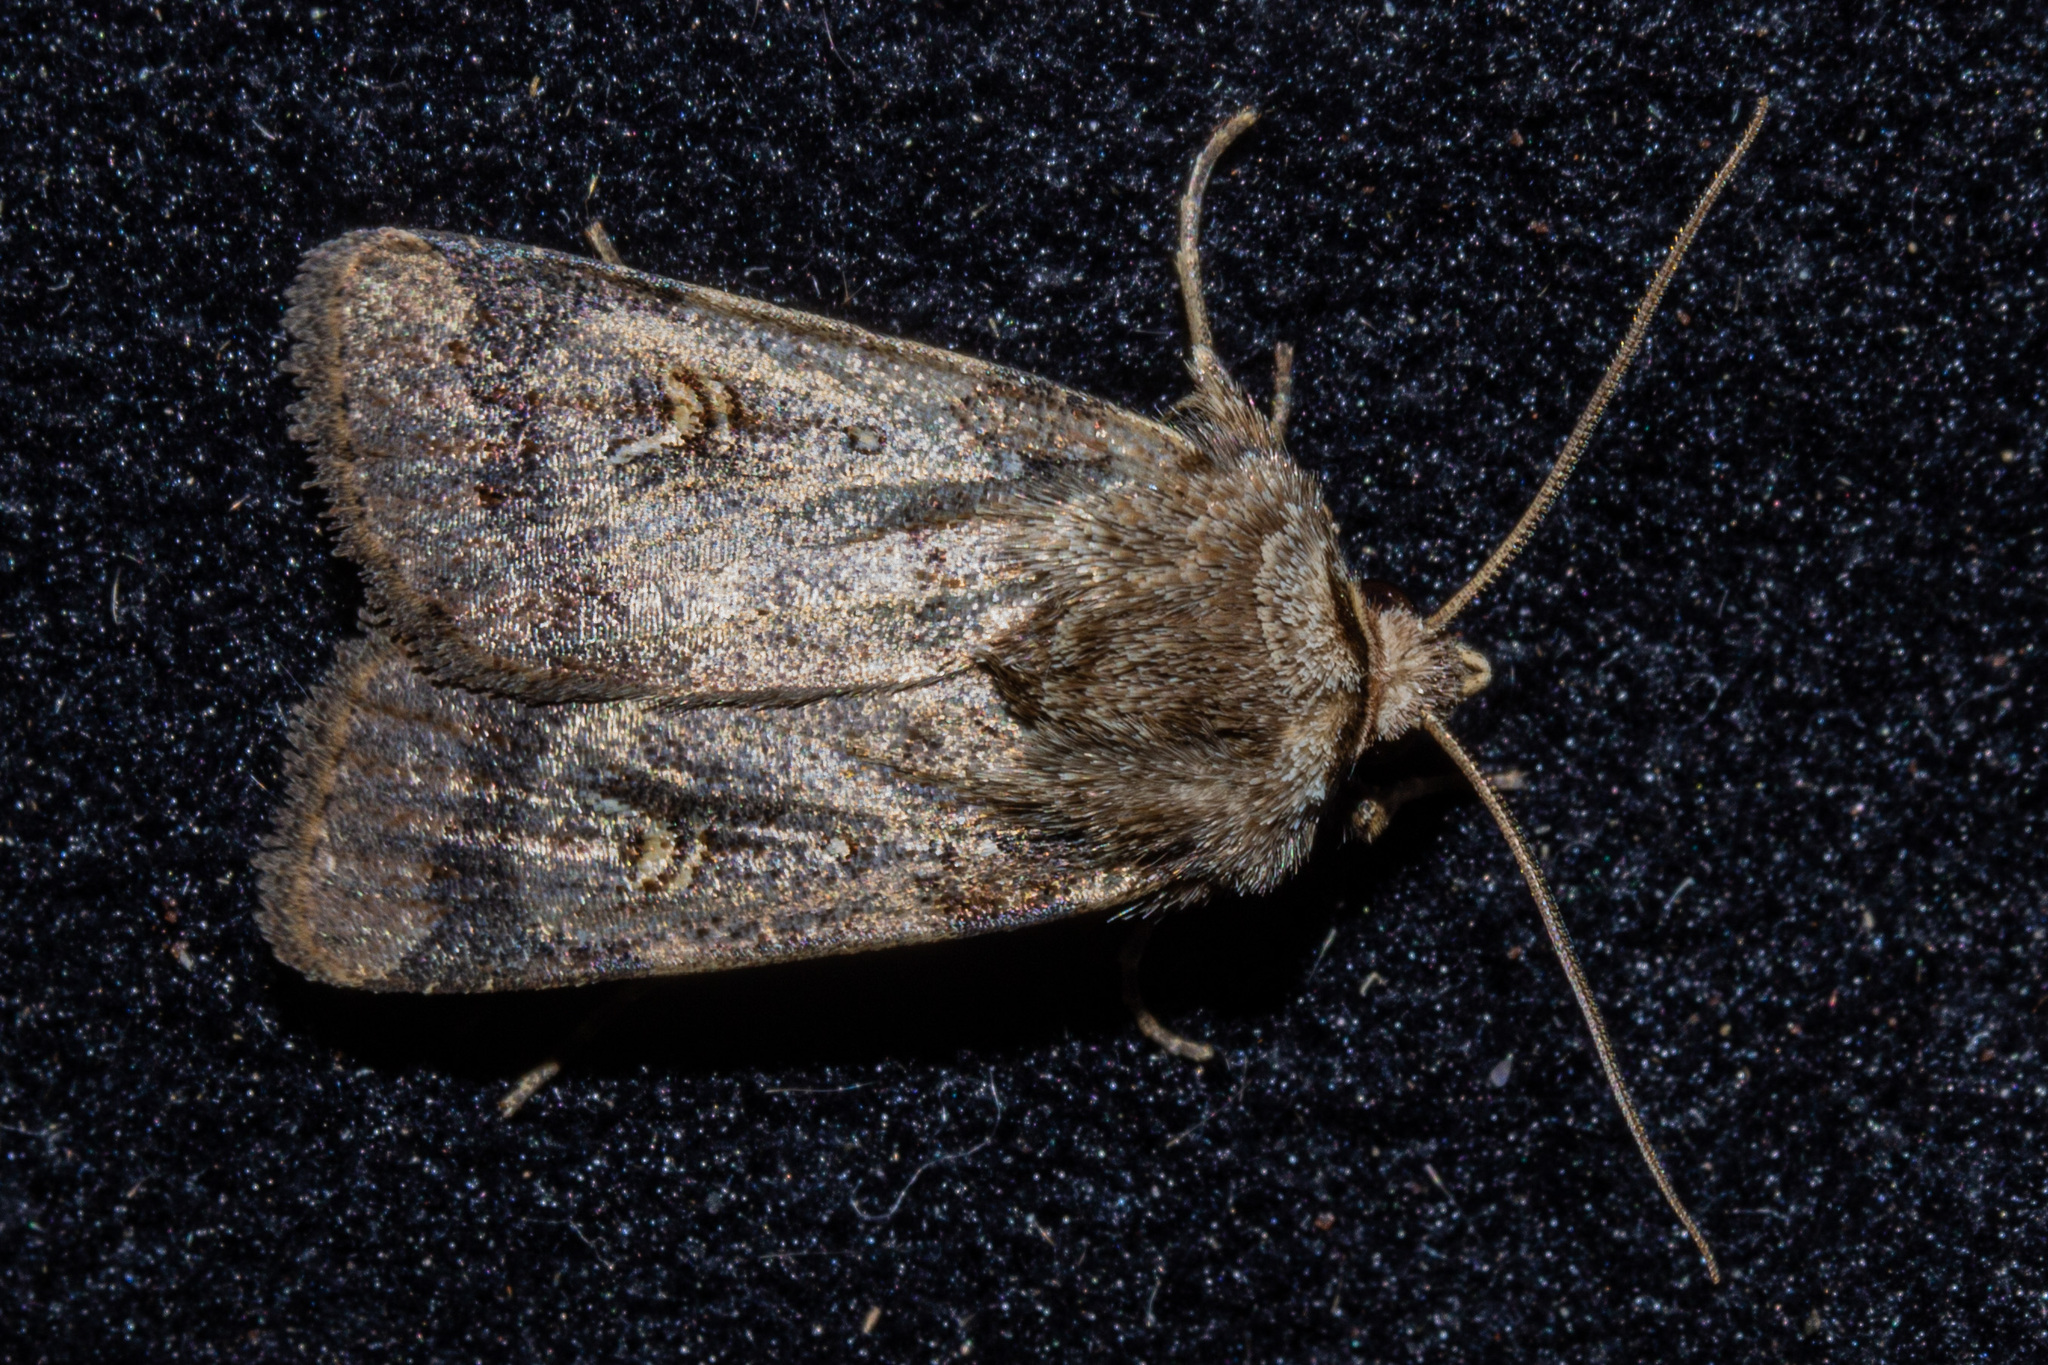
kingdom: Animalia
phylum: Arthropoda
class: Insecta
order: Lepidoptera
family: Noctuidae
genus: Proteuxoa
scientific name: Proteuxoa tetronycha
